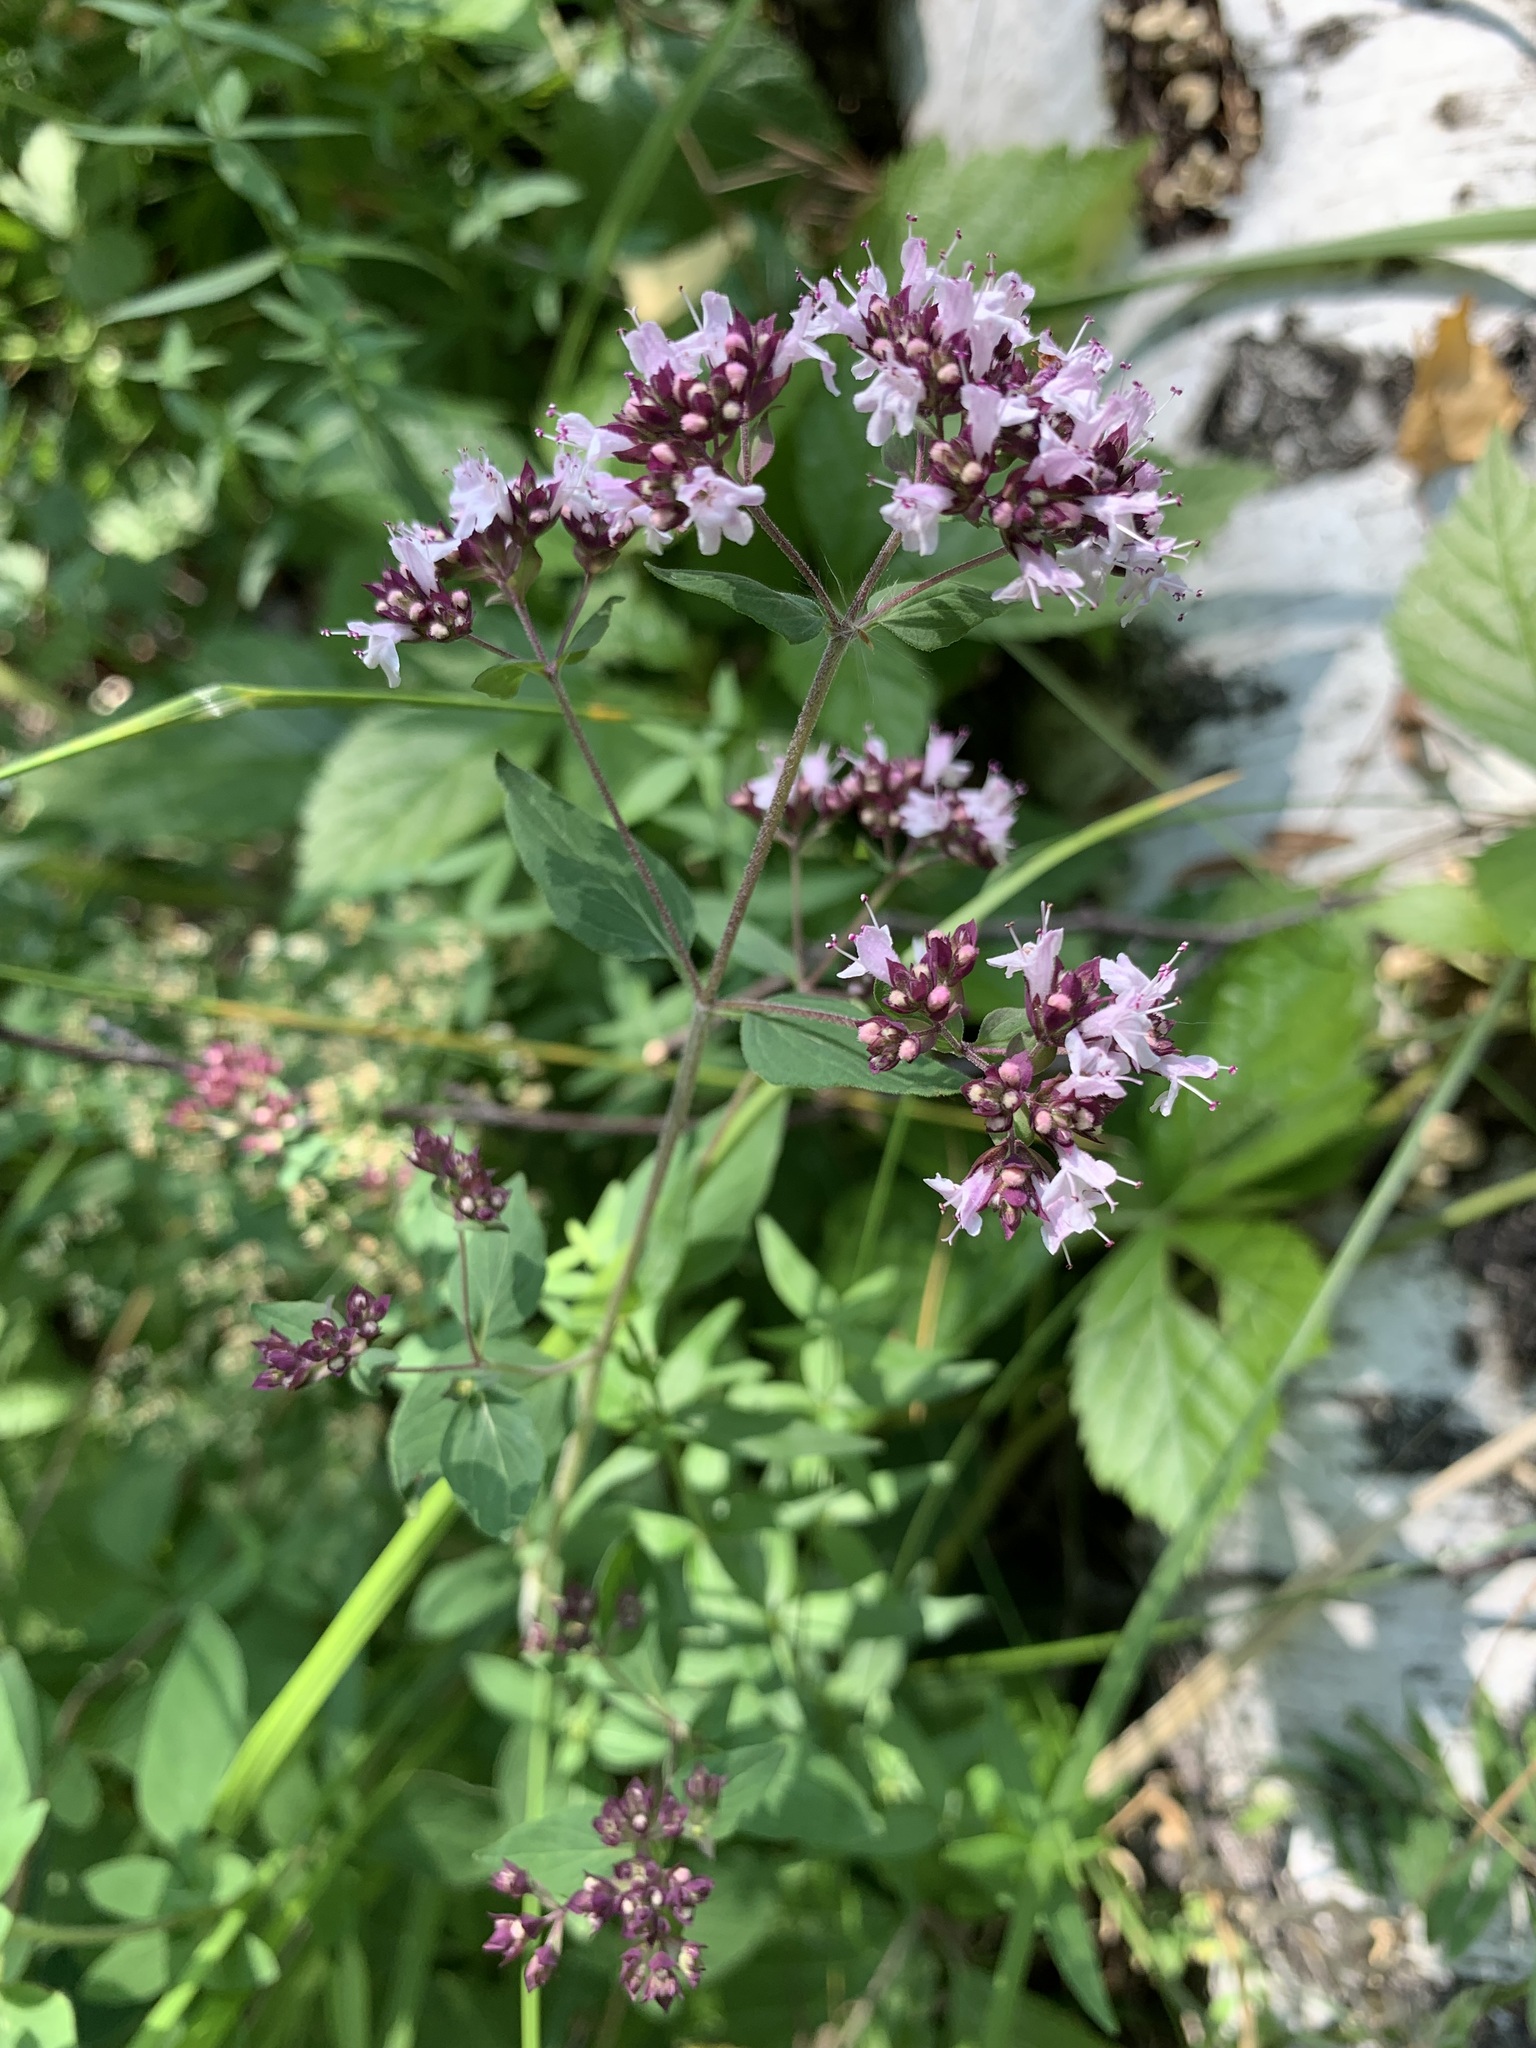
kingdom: Plantae
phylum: Tracheophyta
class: Magnoliopsida
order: Lamiales
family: Lamiaceae
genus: Origanum
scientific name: Origanum vulgare
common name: Wild marjoram
